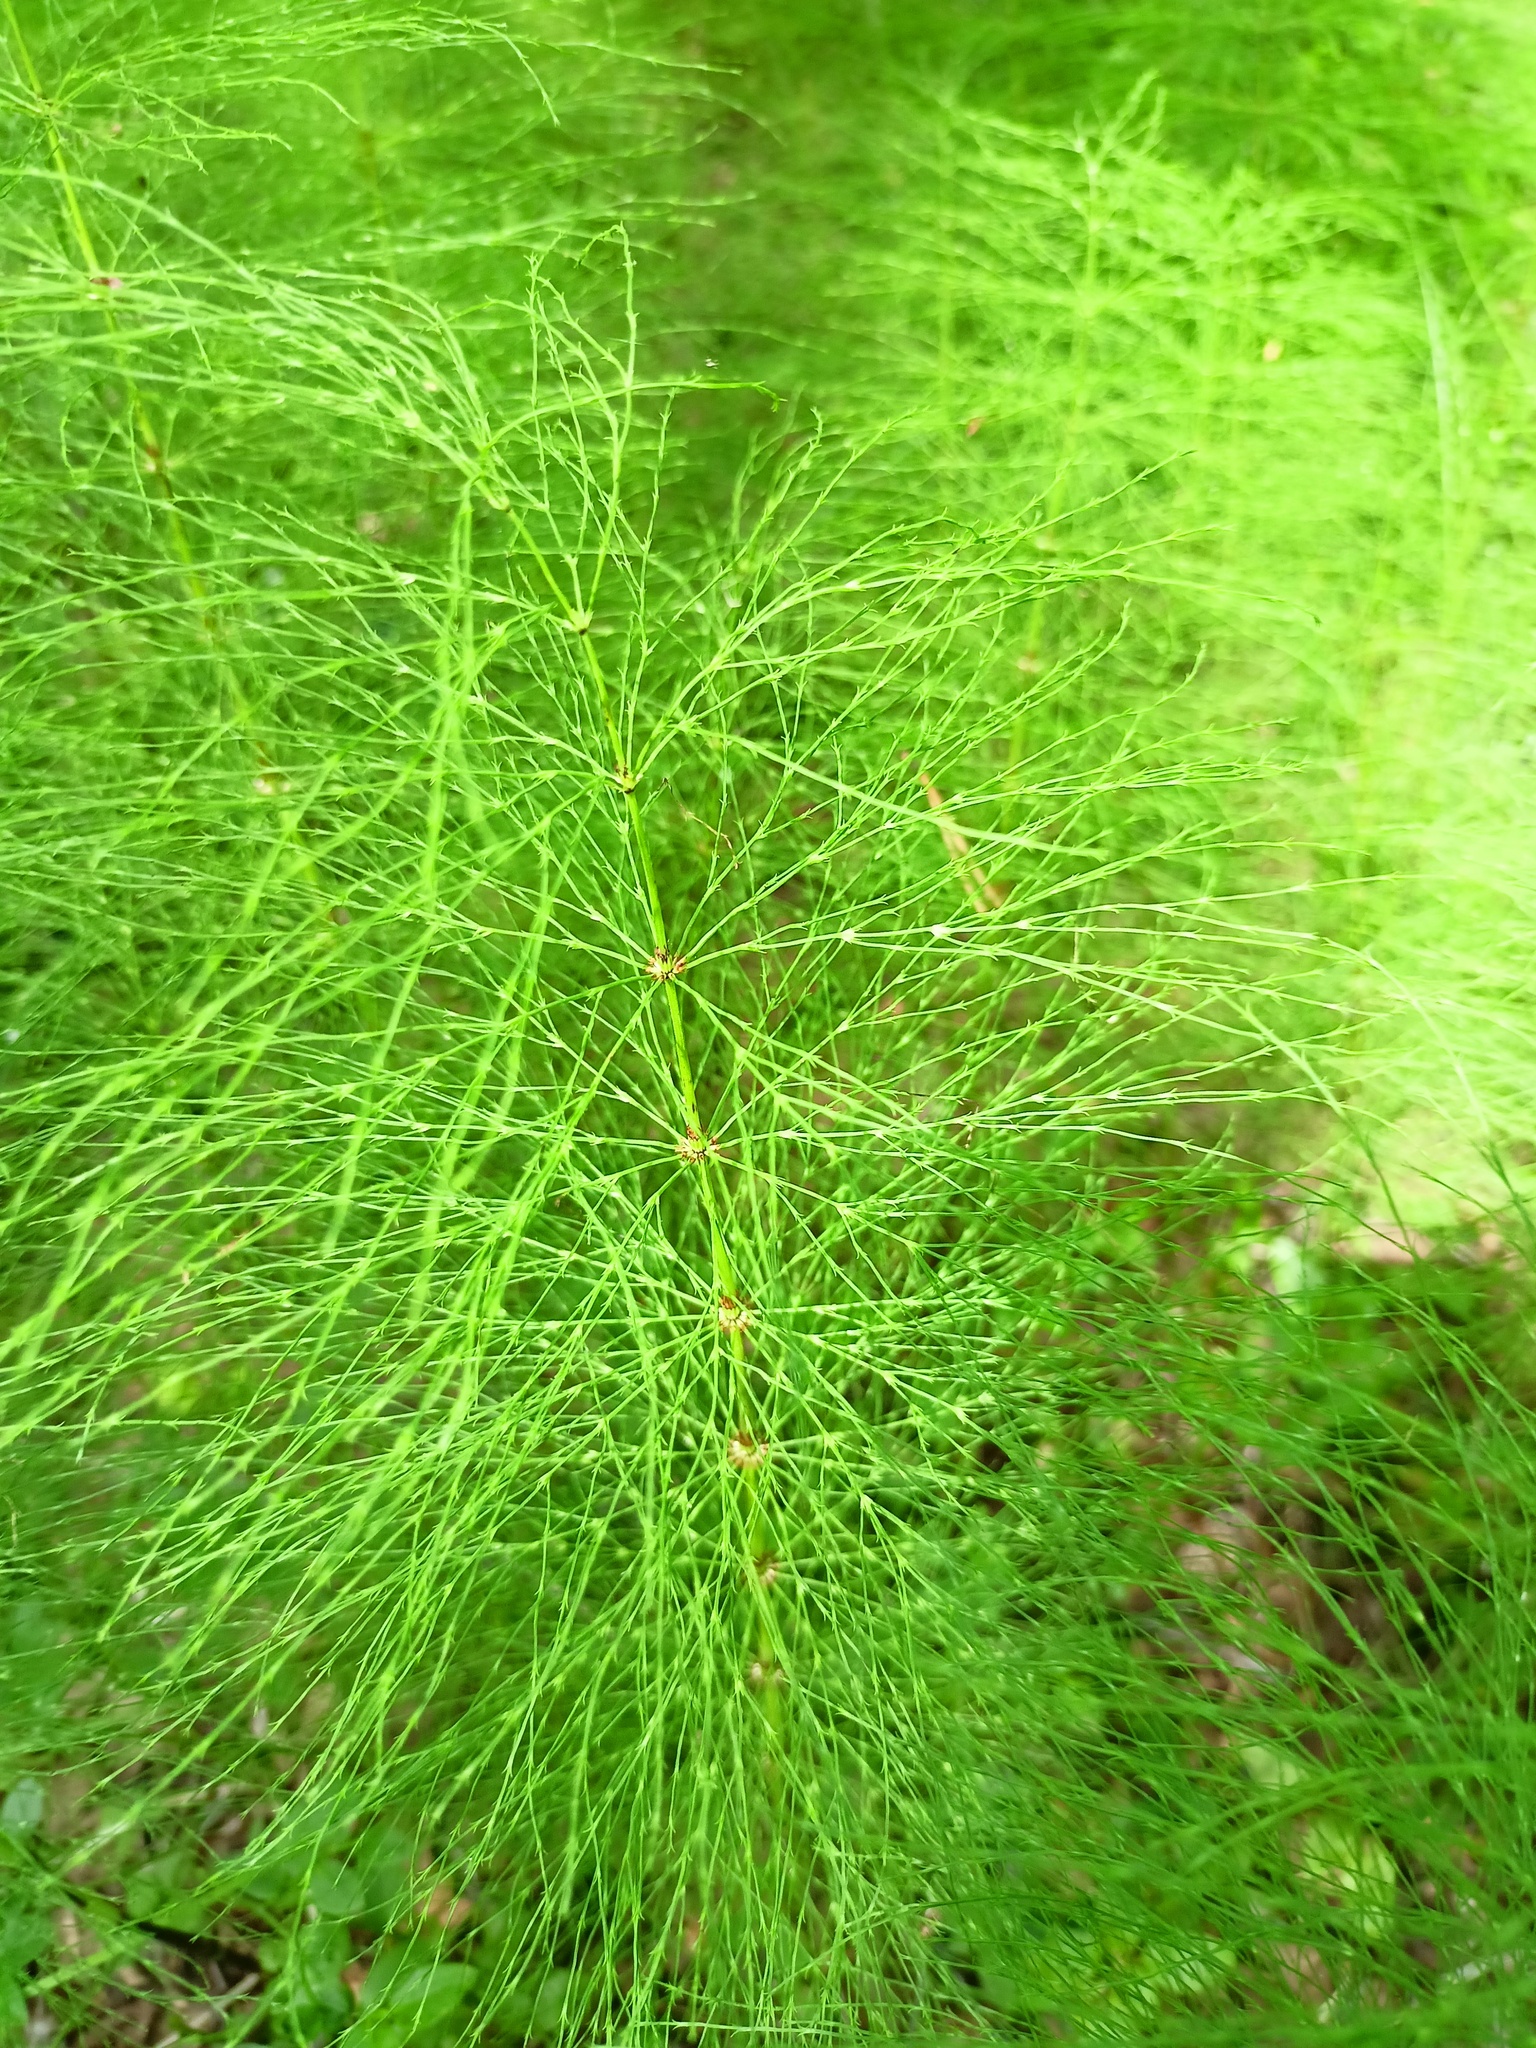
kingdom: Plantae
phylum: Tracheophyta
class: Polypodiopsida
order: Equisetales
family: Equisetaceae
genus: Equisetum
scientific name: Equisetum sylvaticum
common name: Wood horsetail
